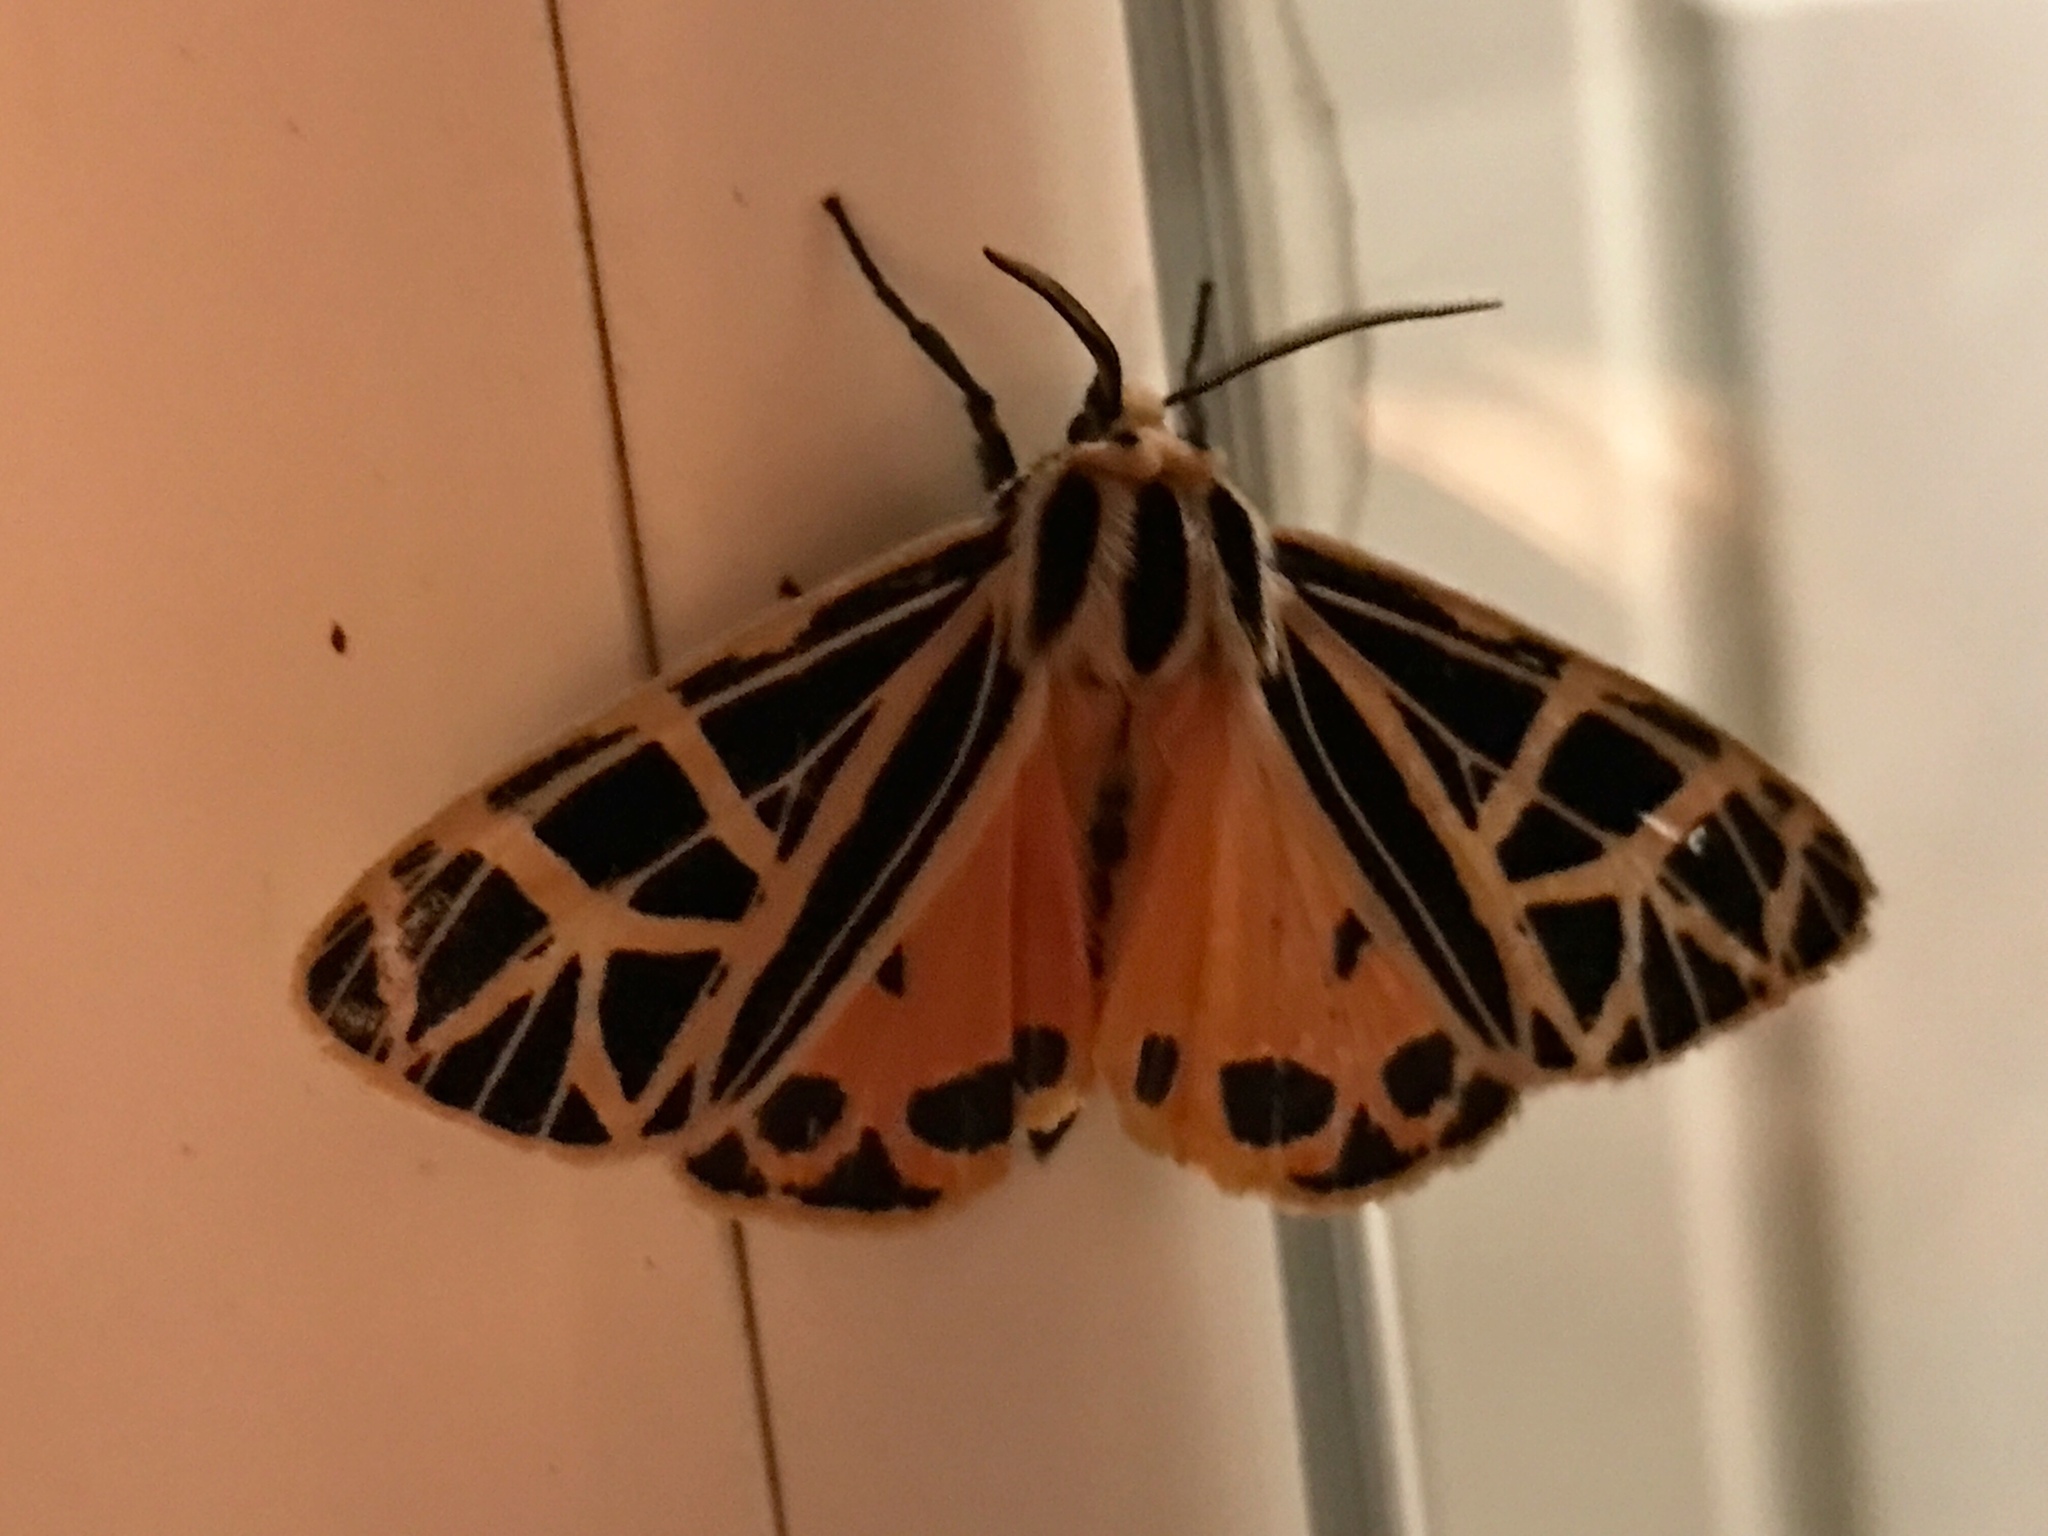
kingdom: Animalia
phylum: Arthropoda
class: Insecta
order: Lepidoptera
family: Erebidae
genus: Grammia
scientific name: Grammia parthenice
